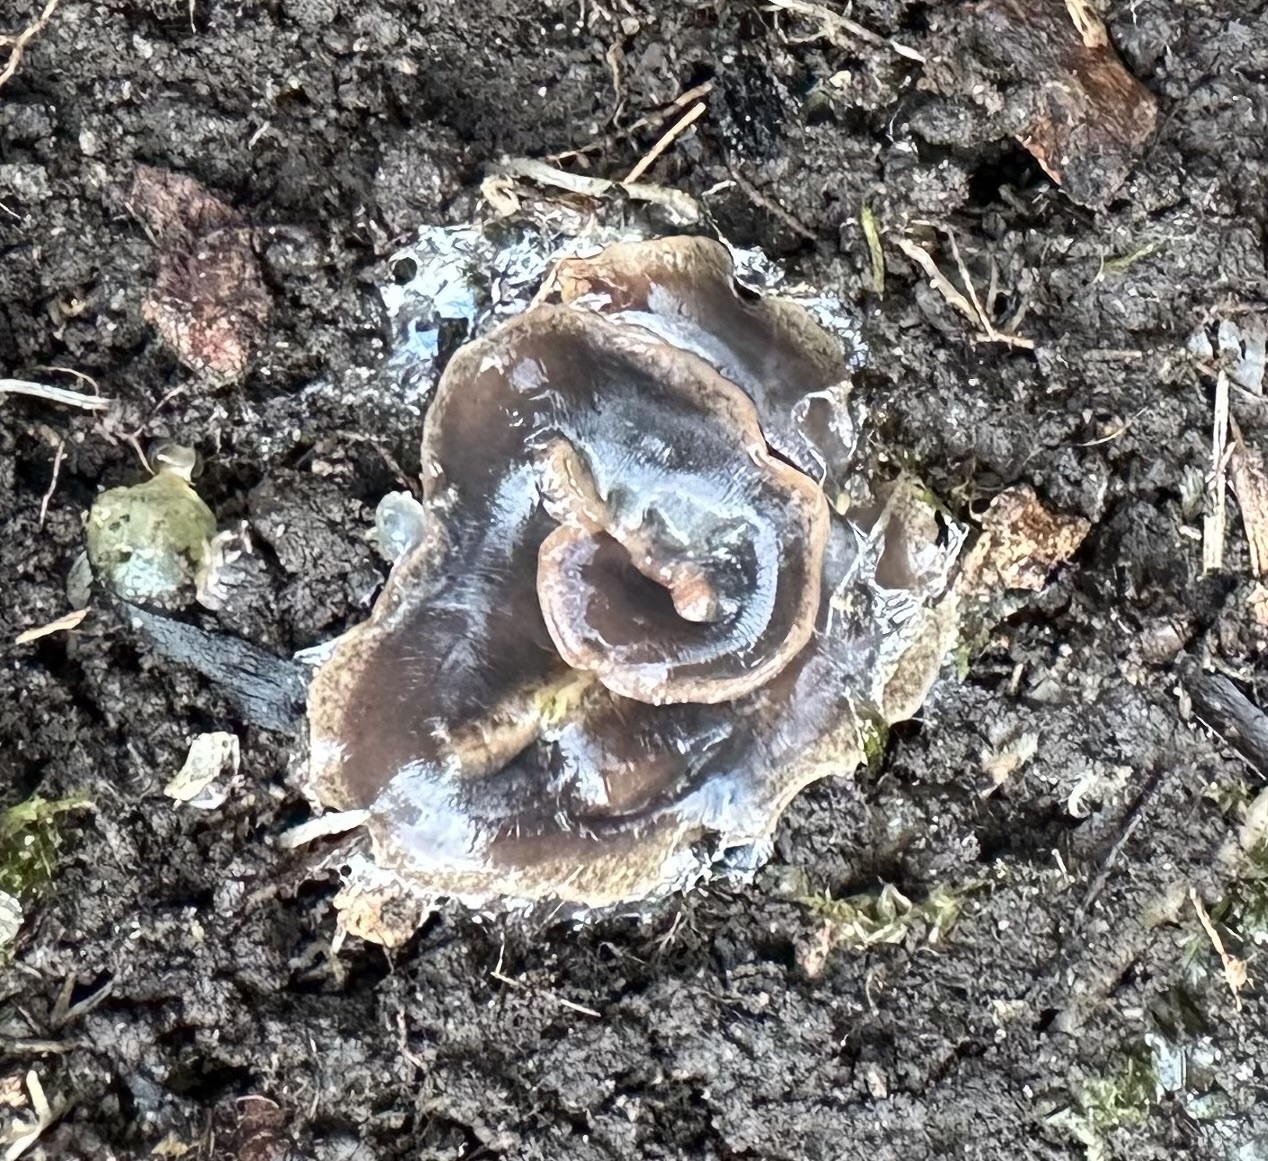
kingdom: Animalia
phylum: Platyhelminthes
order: Tricladida
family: Geoplanidae
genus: Arthurdendyus
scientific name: Arthurdendyus triangulatus
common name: New zealand flatworm
